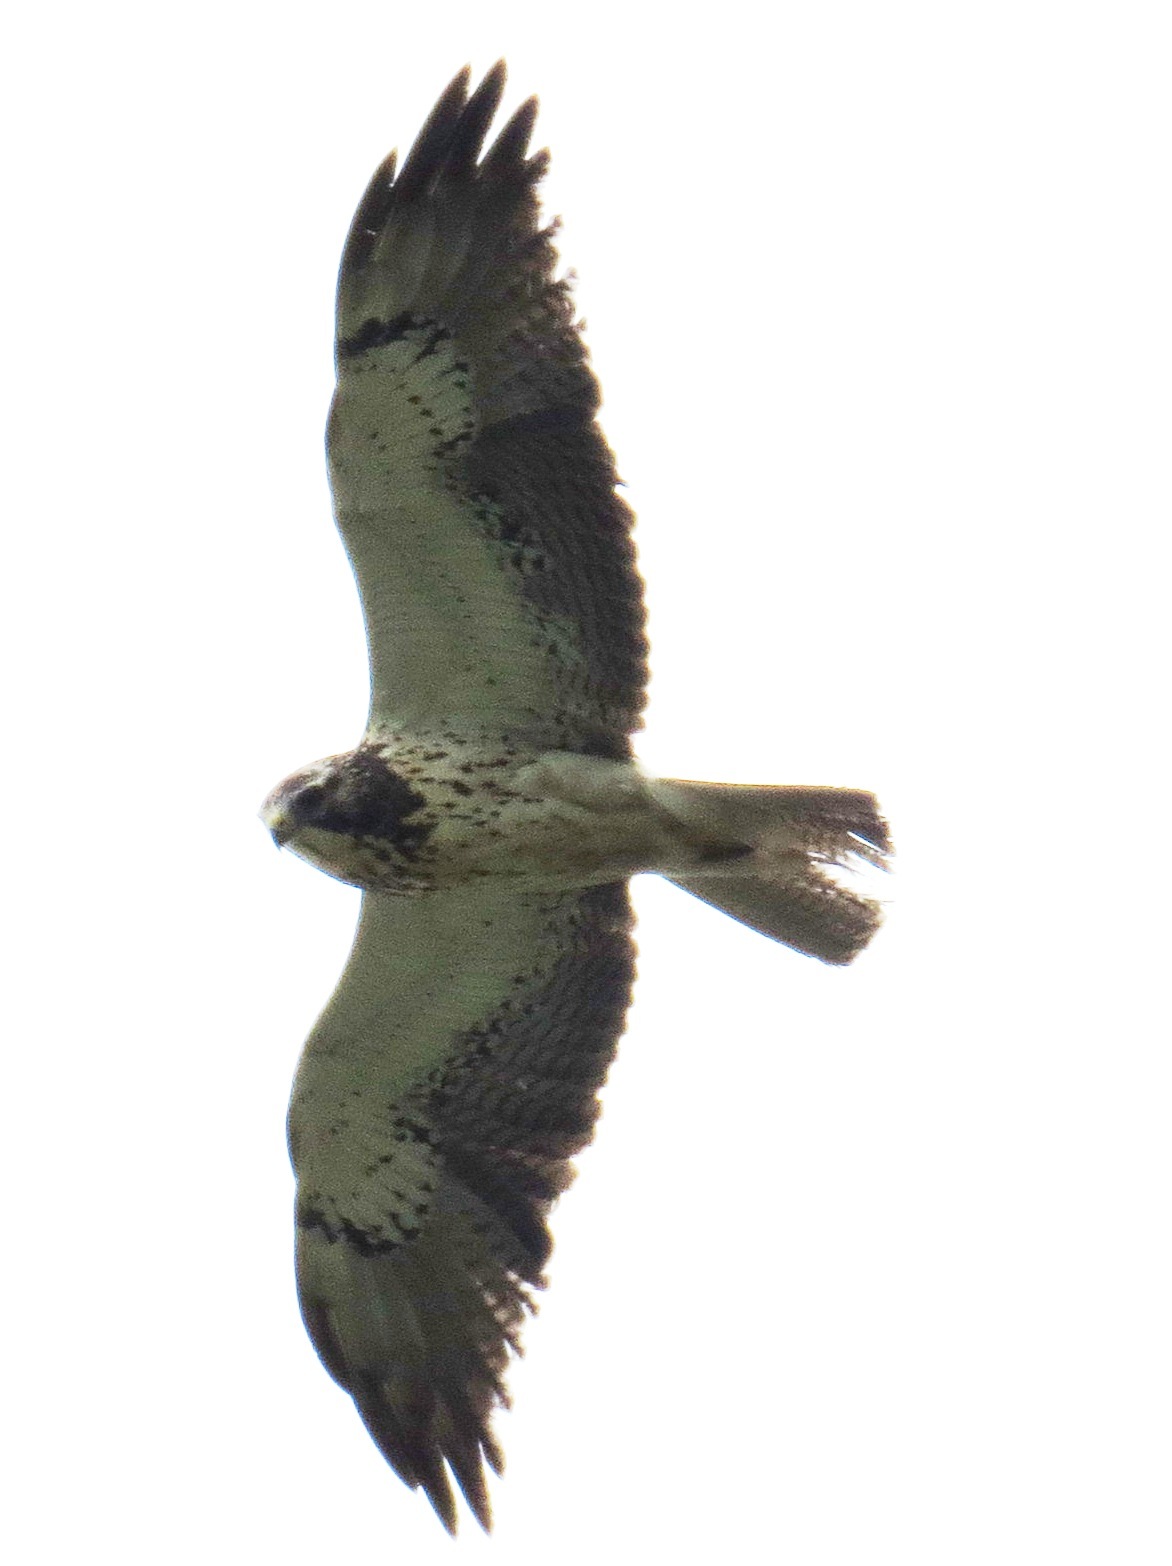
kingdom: Animalia
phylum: Chordata
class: Aves
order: Accipitriformes
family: Accipitridae
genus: Buteo
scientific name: Buteo swainsoni
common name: Swainson's hawk
